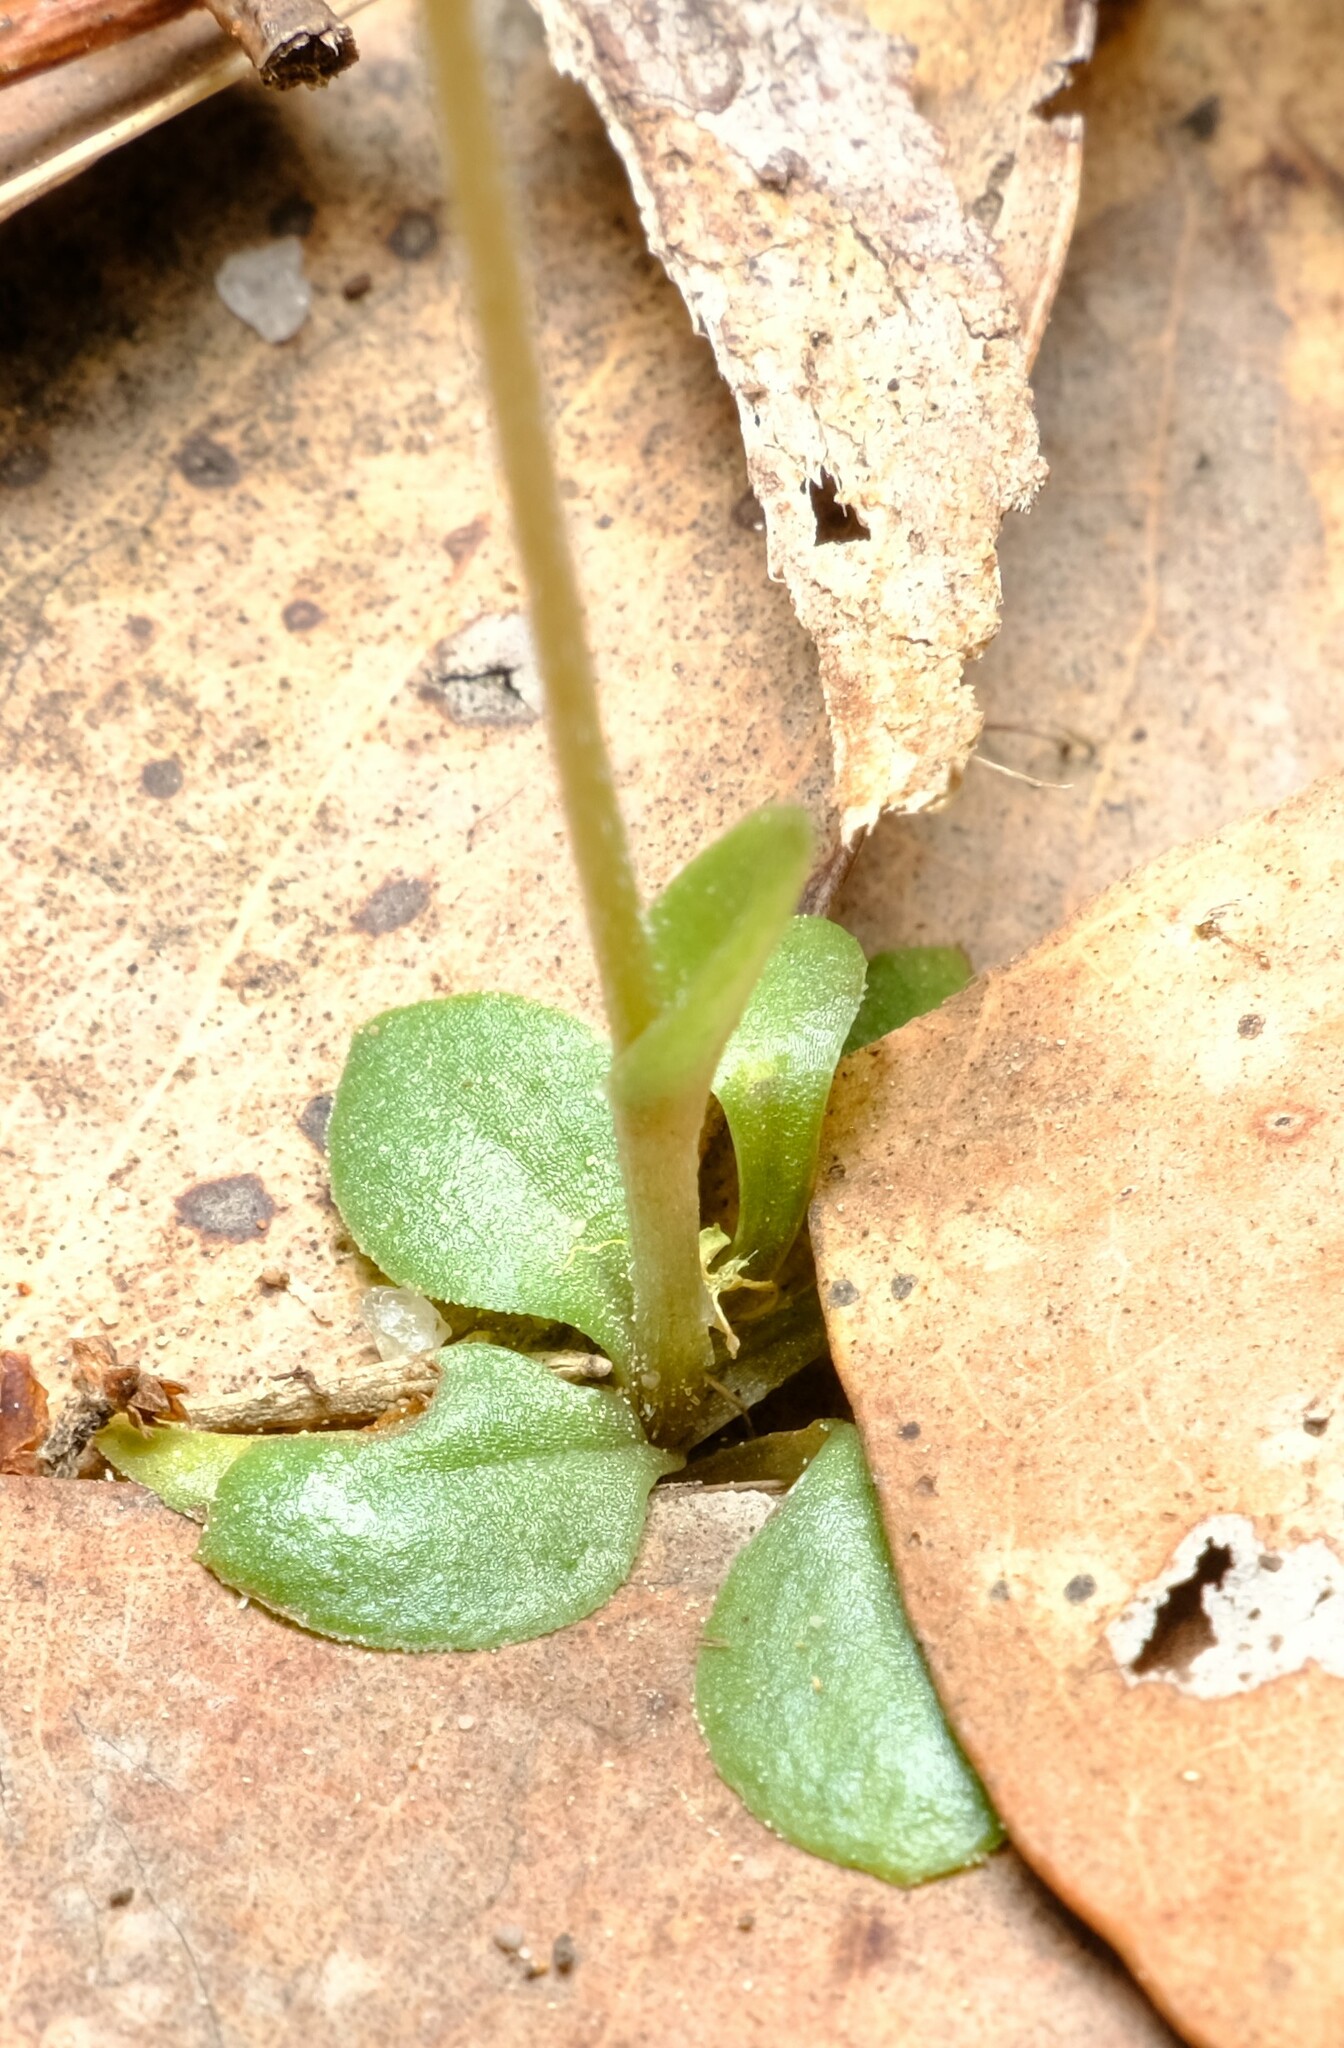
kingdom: Plantae
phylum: Tracheophyta
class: Liliopsida
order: Asparagales
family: Orchidaceae
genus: Pterostylis
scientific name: Pterostylis nana
